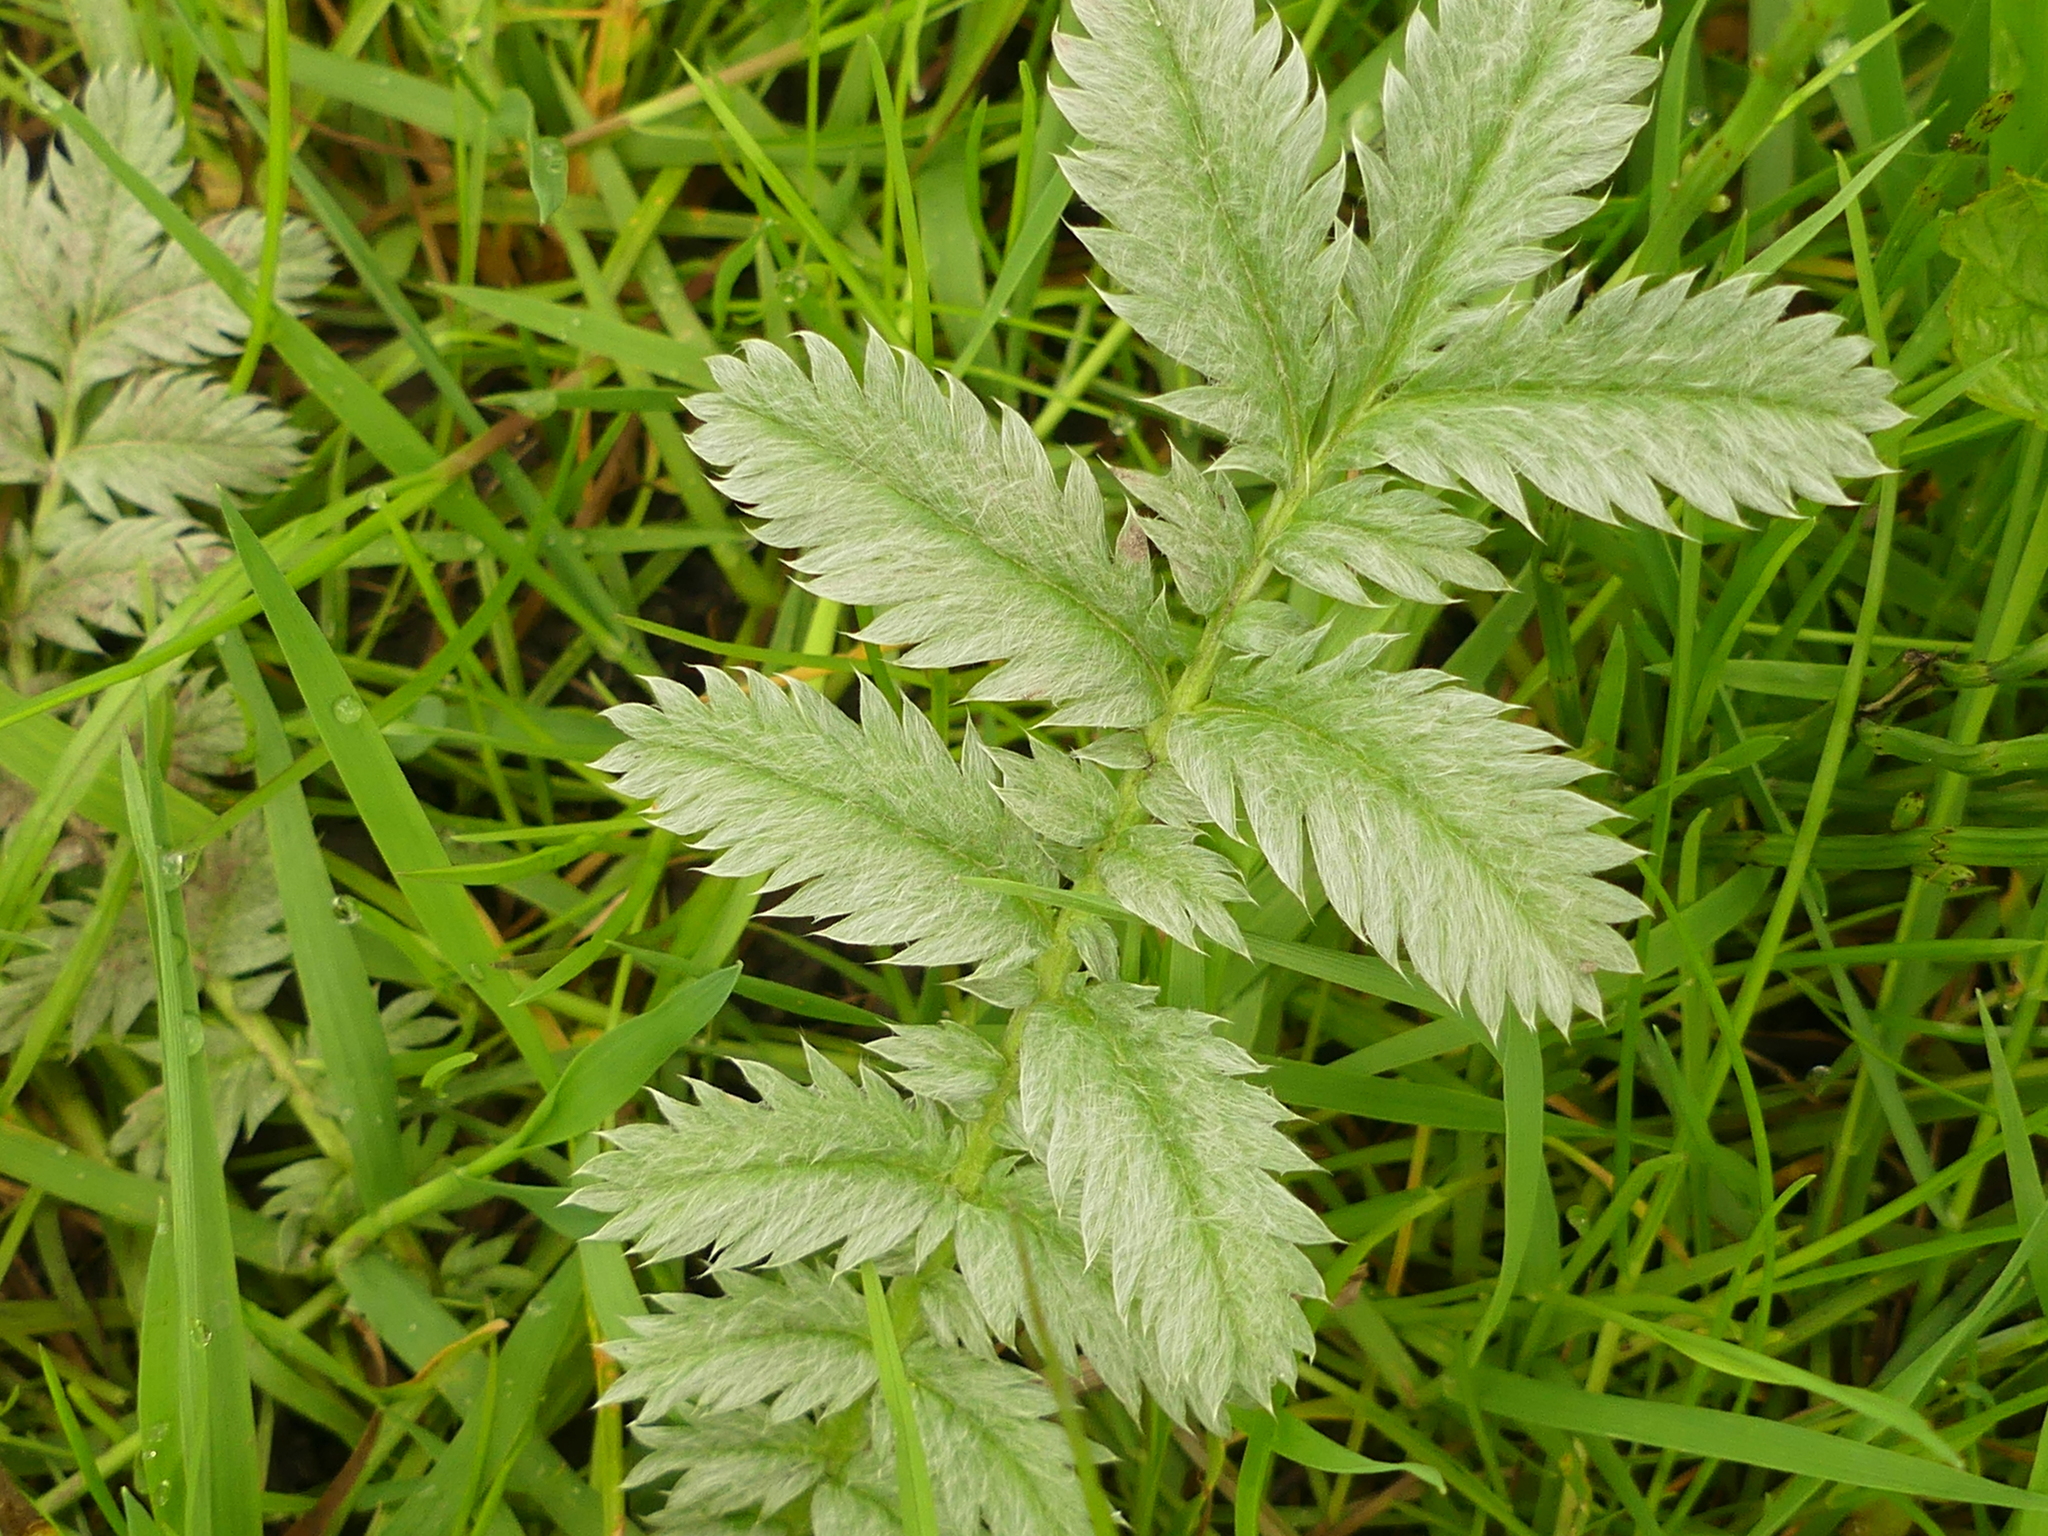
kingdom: Plantae
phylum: Tracheophyta
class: Magnoliopsida
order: Rosales
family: Rosaceae
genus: Argentina
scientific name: Argentina anserina
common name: Common silverweed
